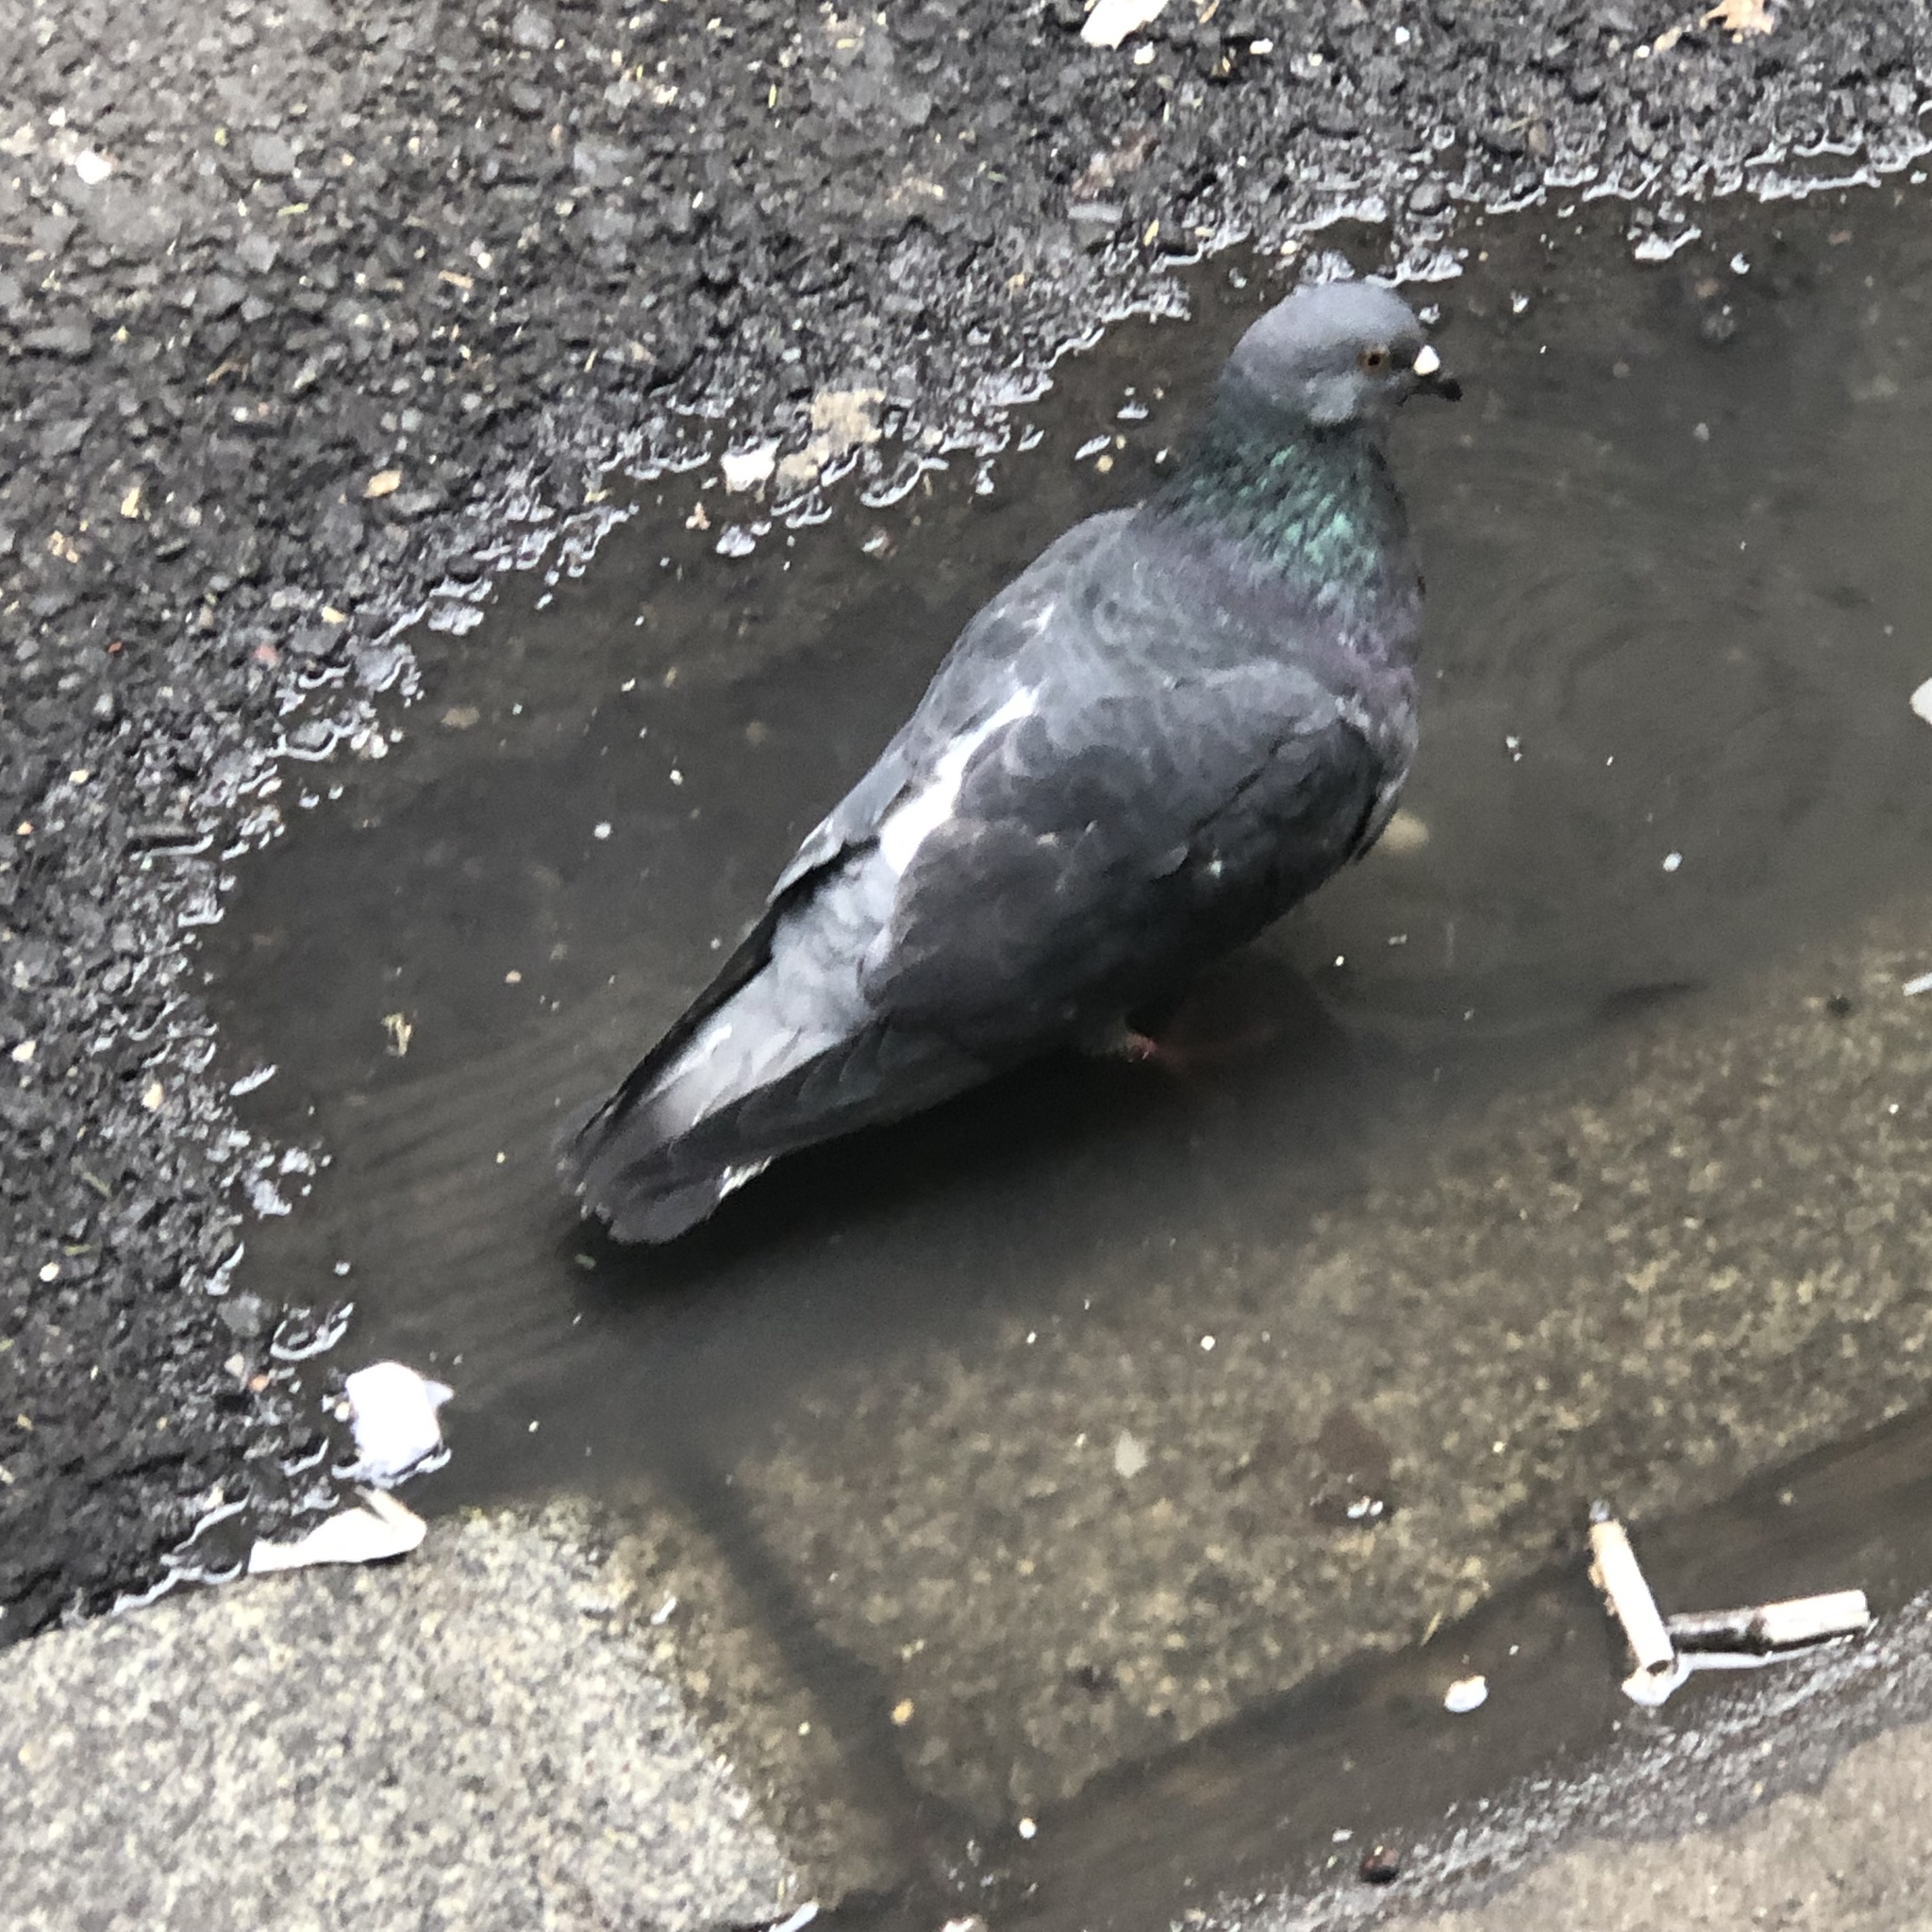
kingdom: Animalia
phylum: Chordata
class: Aves
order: Columbiformes
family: Columbidae
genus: Columba
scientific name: Columba livia
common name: Rock pigeon
